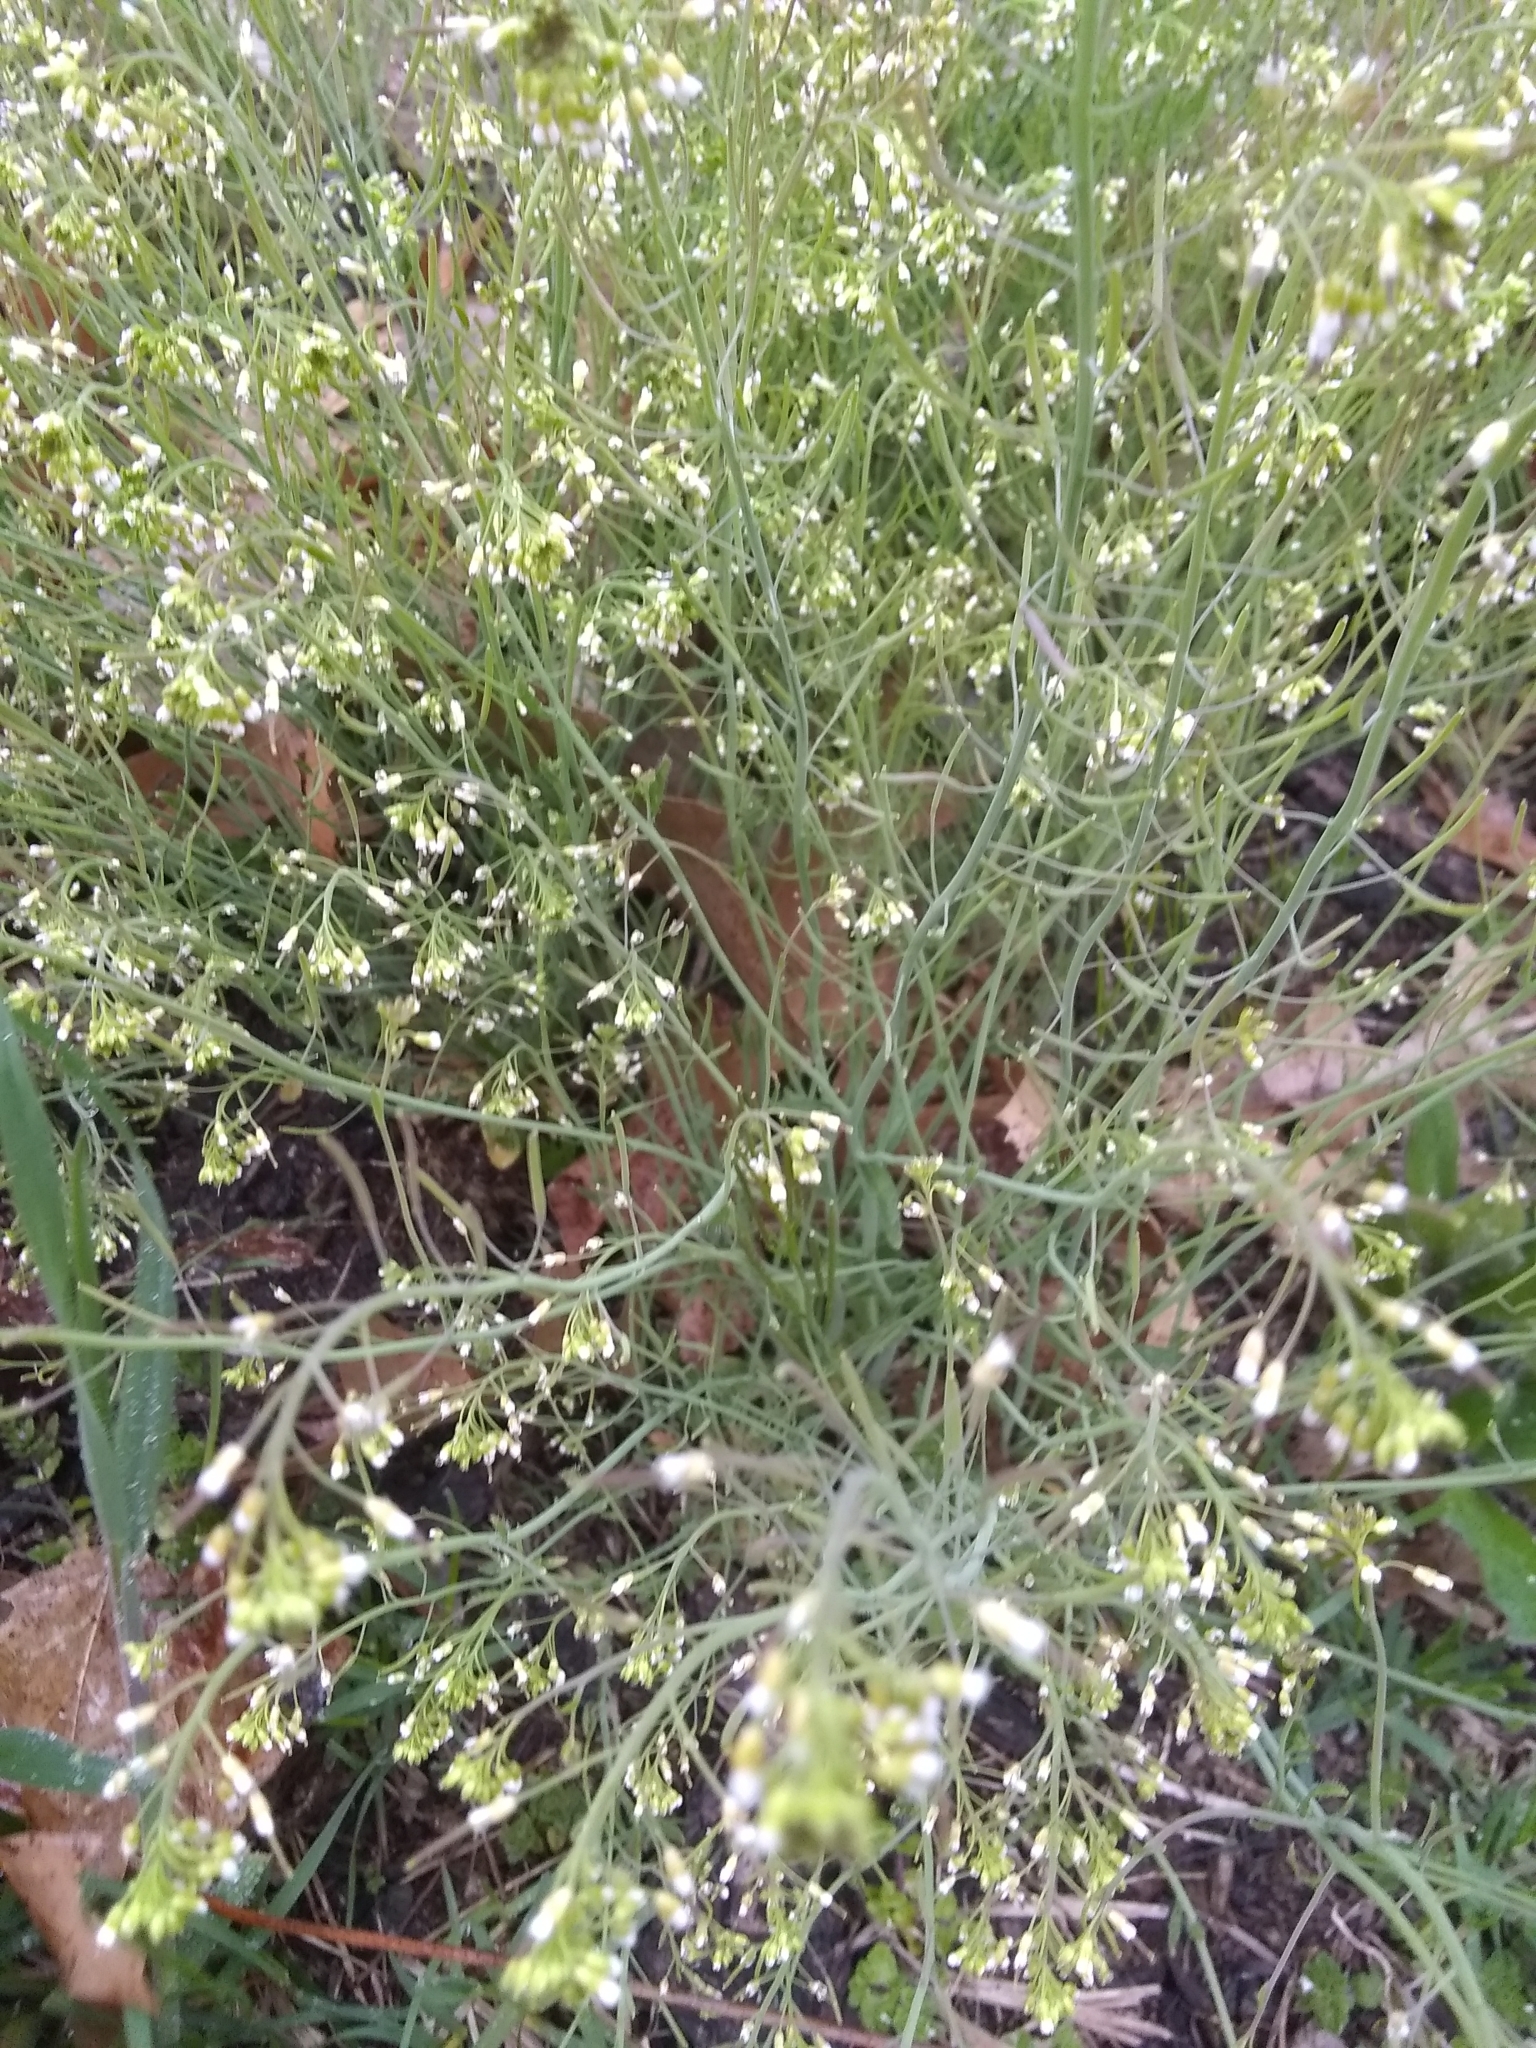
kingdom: Plantae
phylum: Tracheophyta
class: Magnoliopsida
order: Brassicales
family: Brassicaceae
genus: Arabidopsis
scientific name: Arabidopsis thaliana
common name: Thale cress
